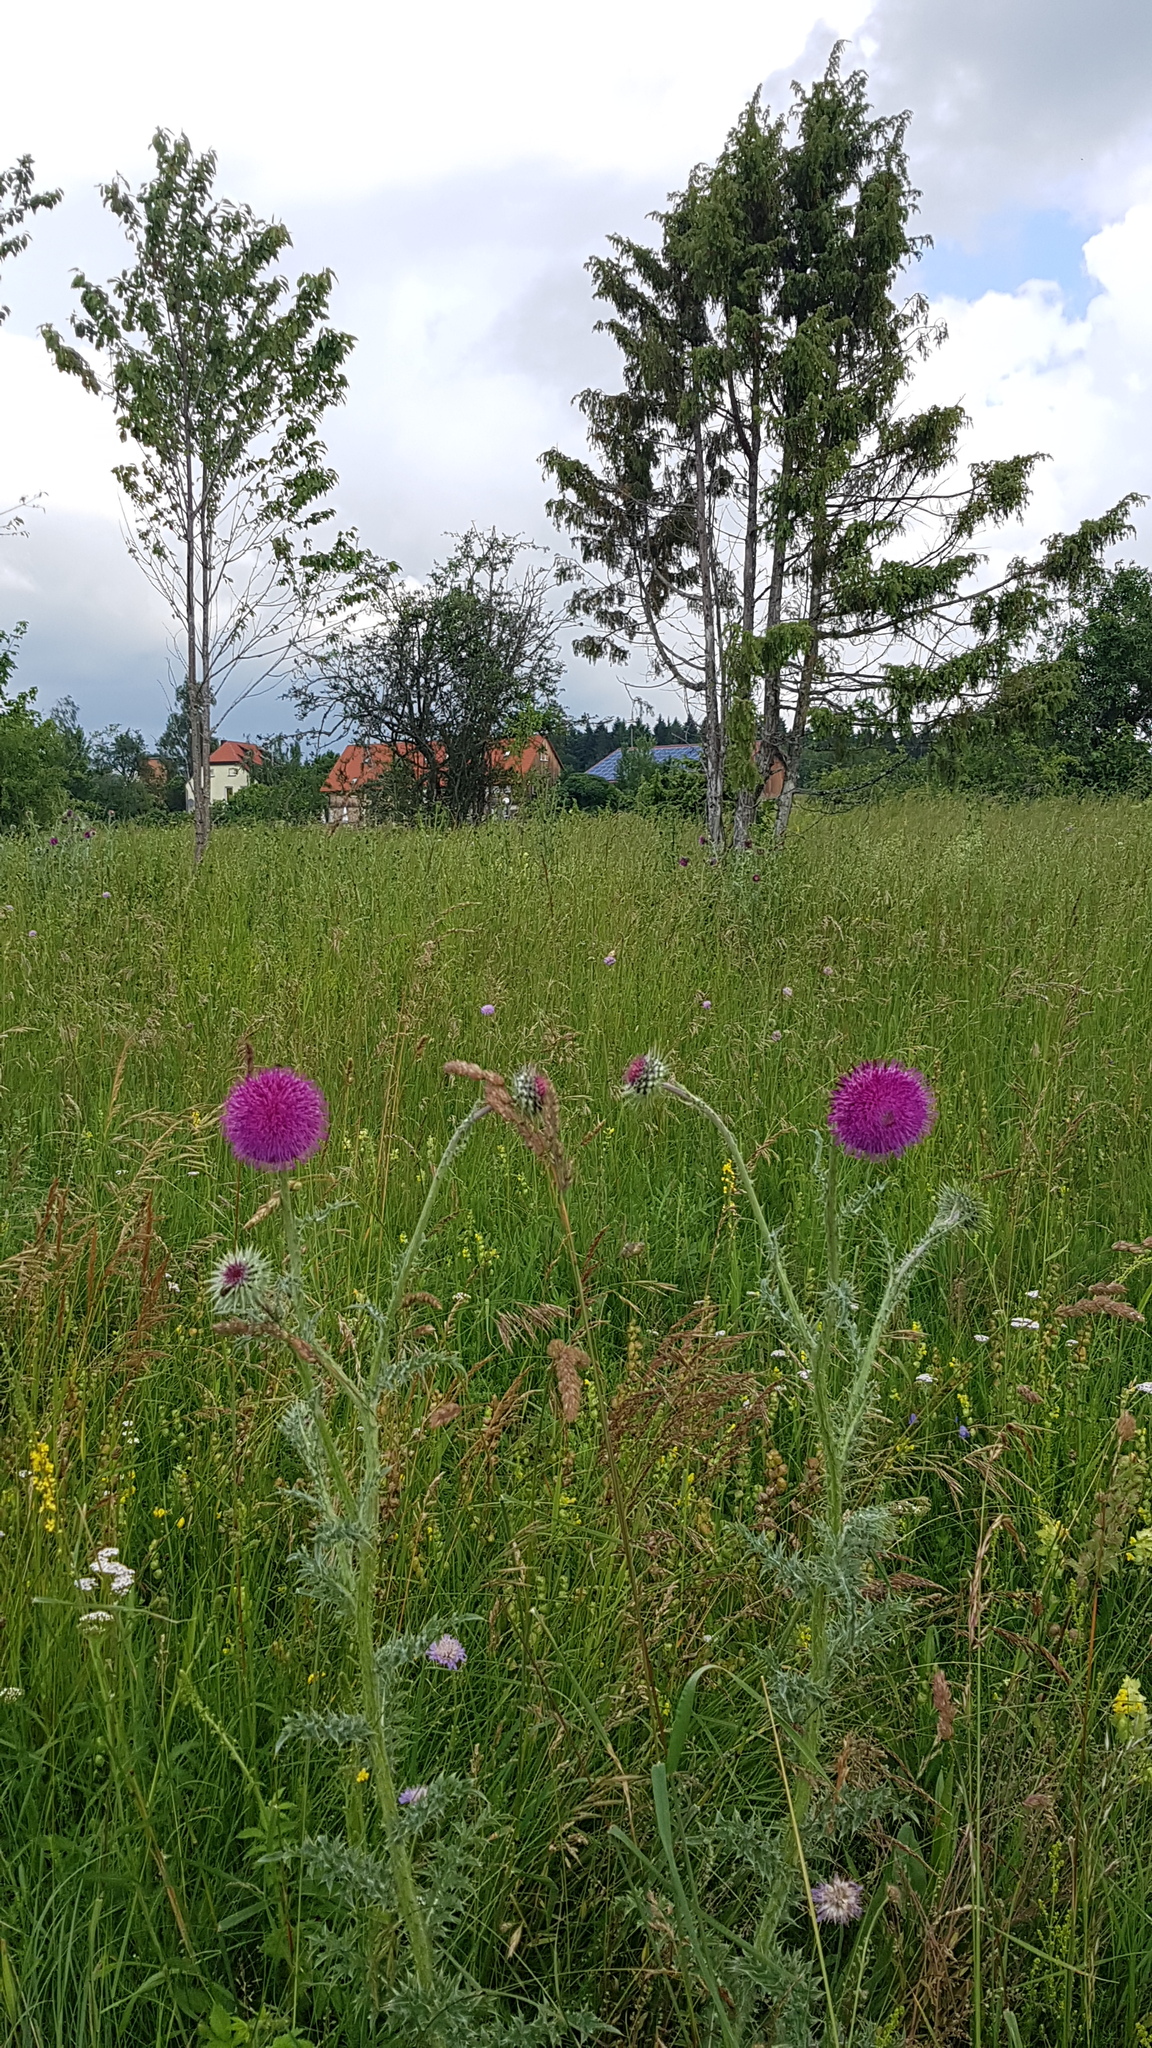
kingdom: Plantae
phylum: Tracheophyta
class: Magnoliopsida
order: Asterales
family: Asteraceae
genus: Carduus
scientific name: Carduus nutans
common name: Musk thistle
